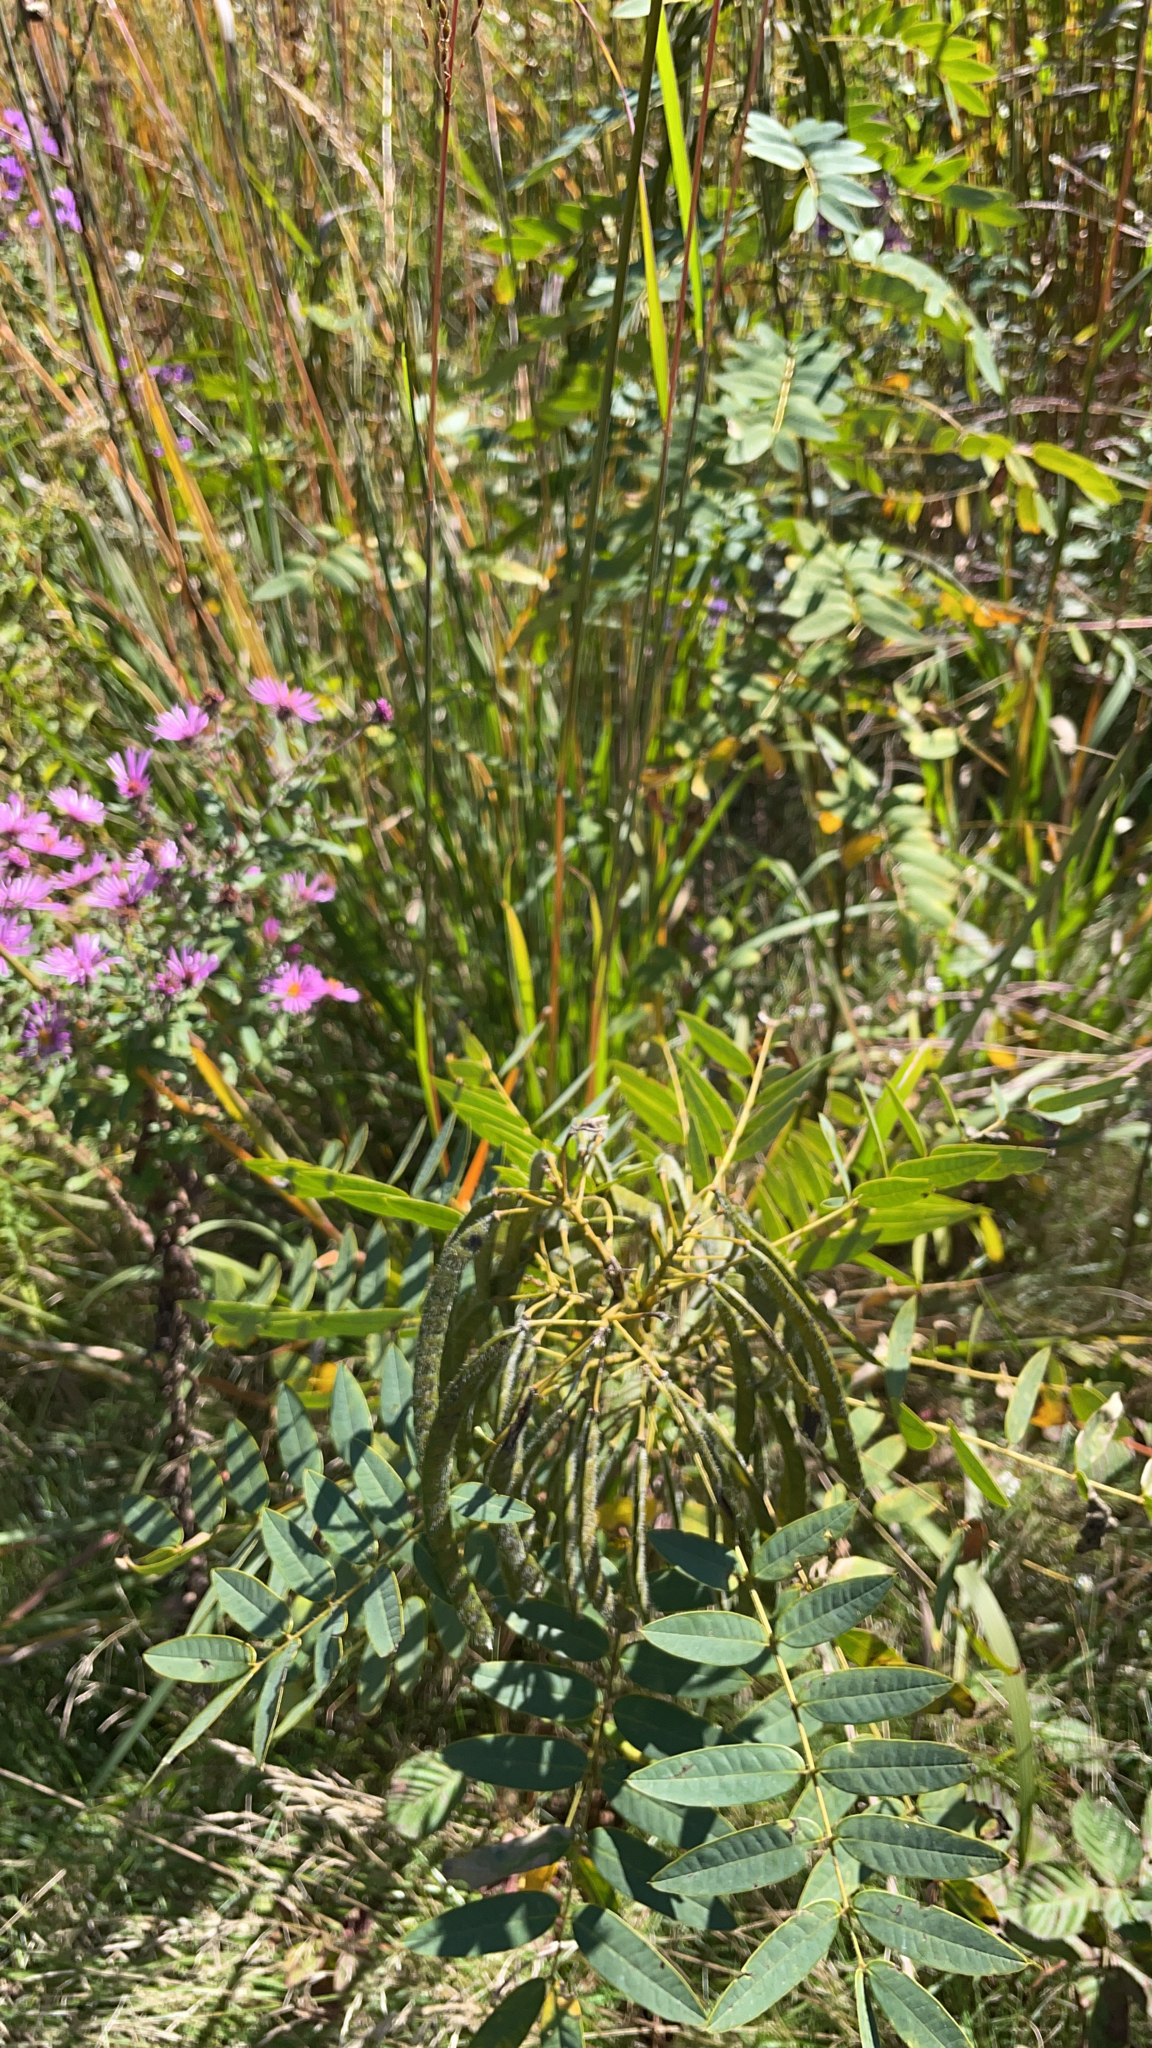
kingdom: Plantae
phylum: Tracheophyta
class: Magnoliopsida
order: Fabales
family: Fabaceae
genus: Senna
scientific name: Senna hebecarpa
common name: Wild senna
